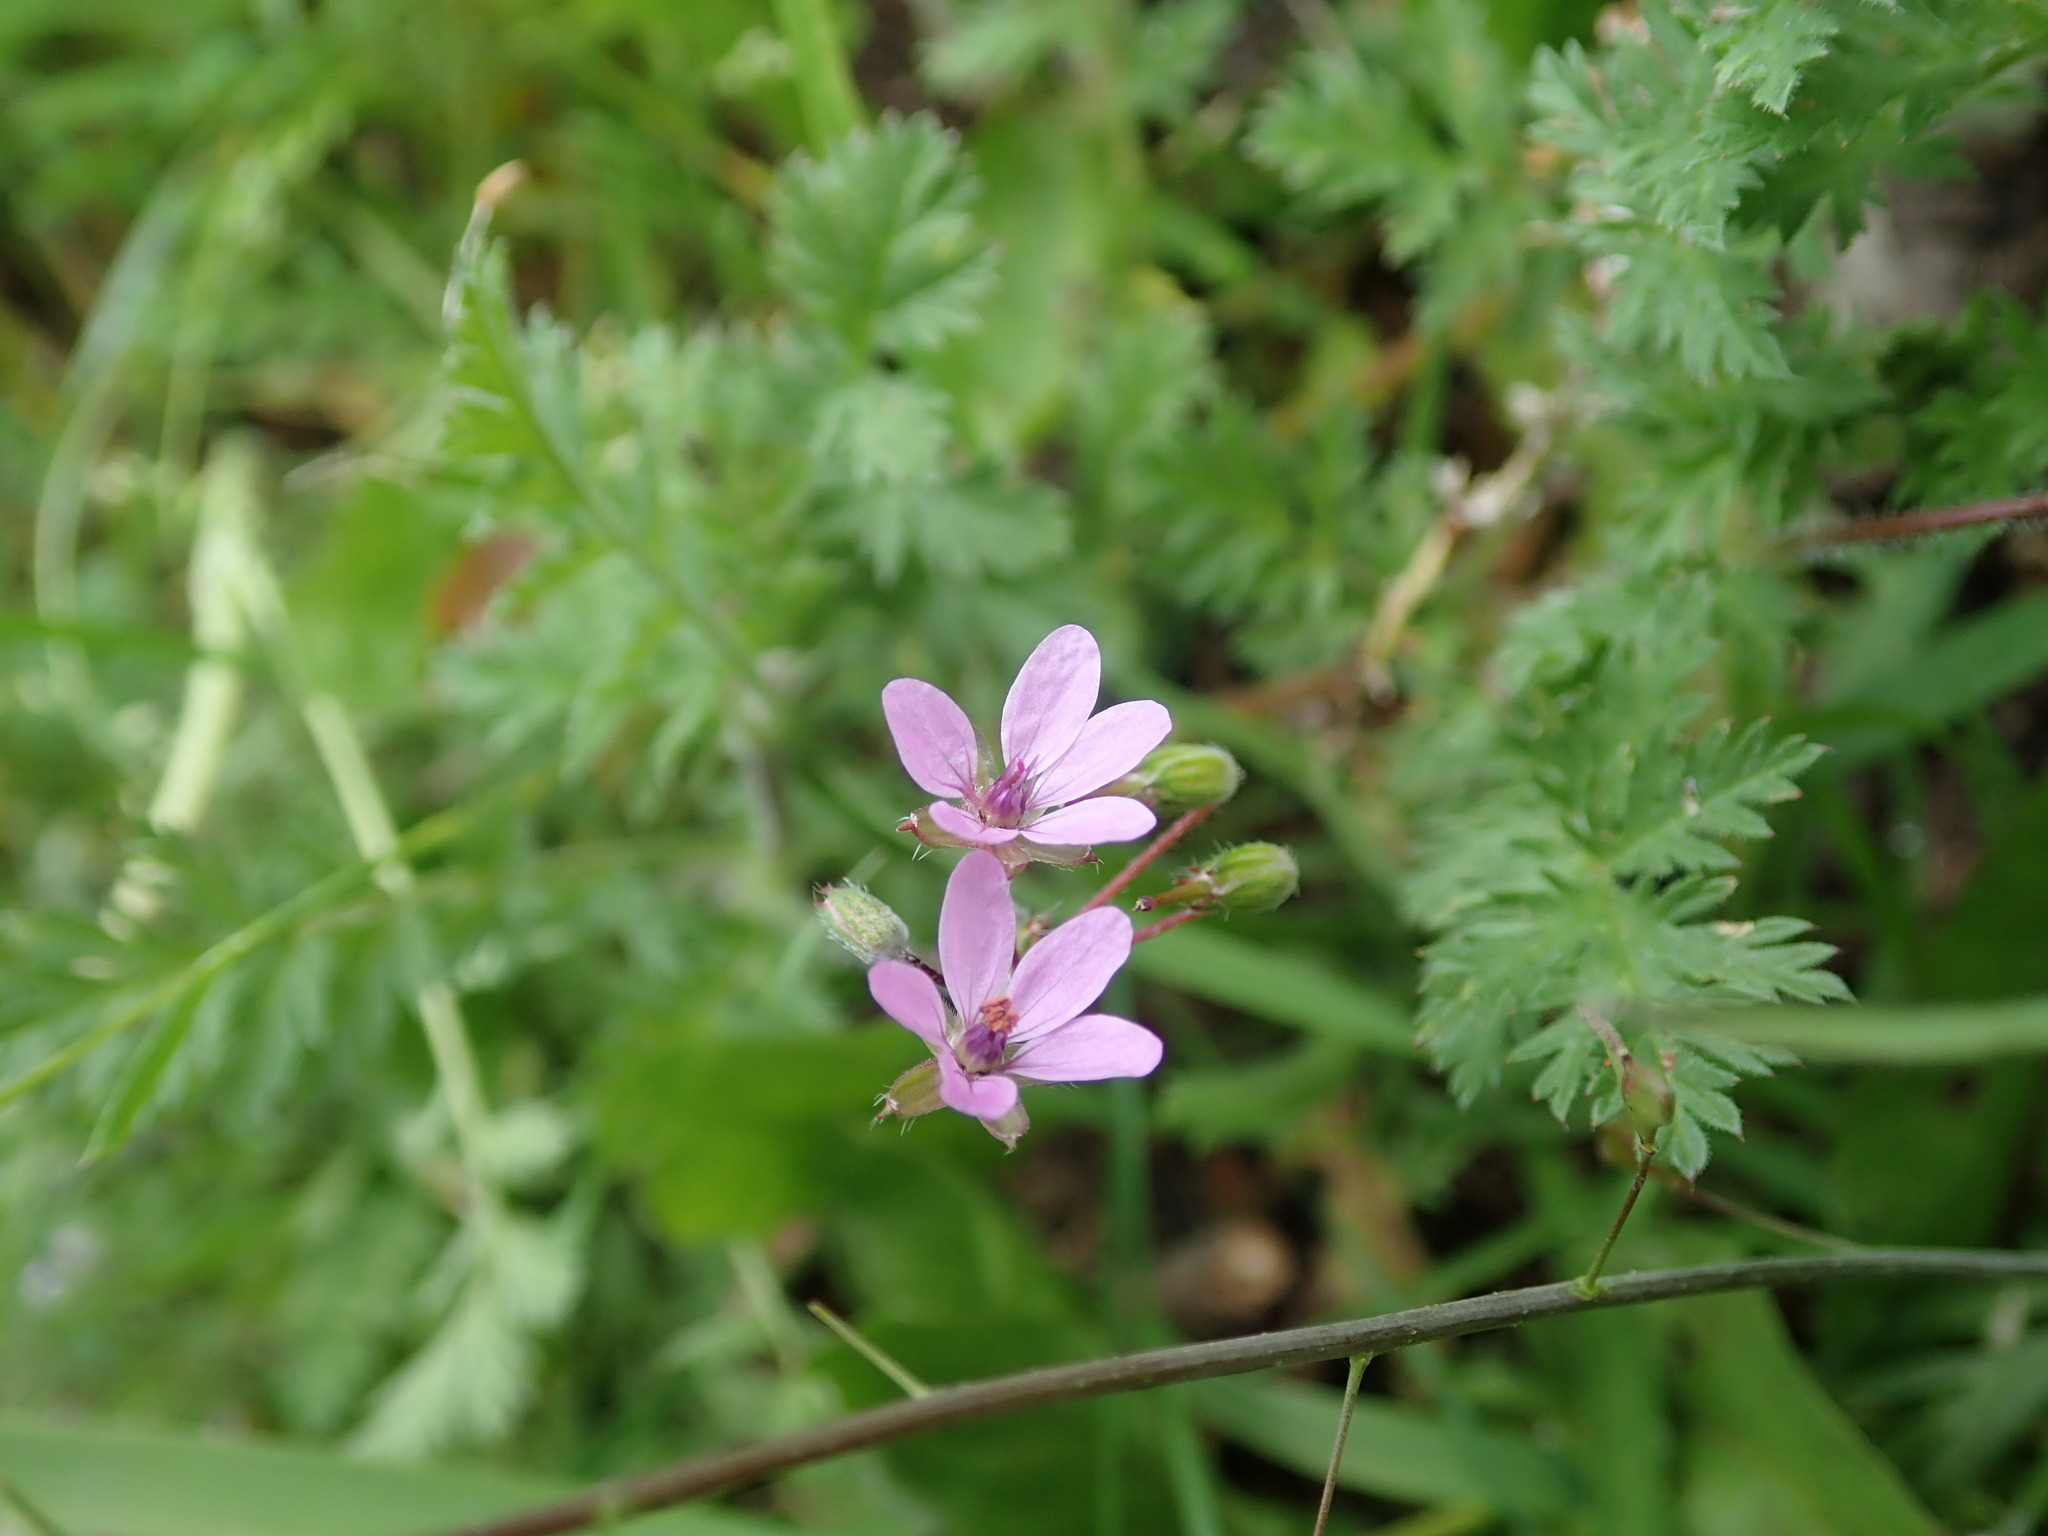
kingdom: Plantae
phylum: Tracheophyta
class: Magnoliopsida
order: Geraniales
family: Geraniaceae
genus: Erodium
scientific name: Erodium cicutarium
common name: Common stork's-bill
